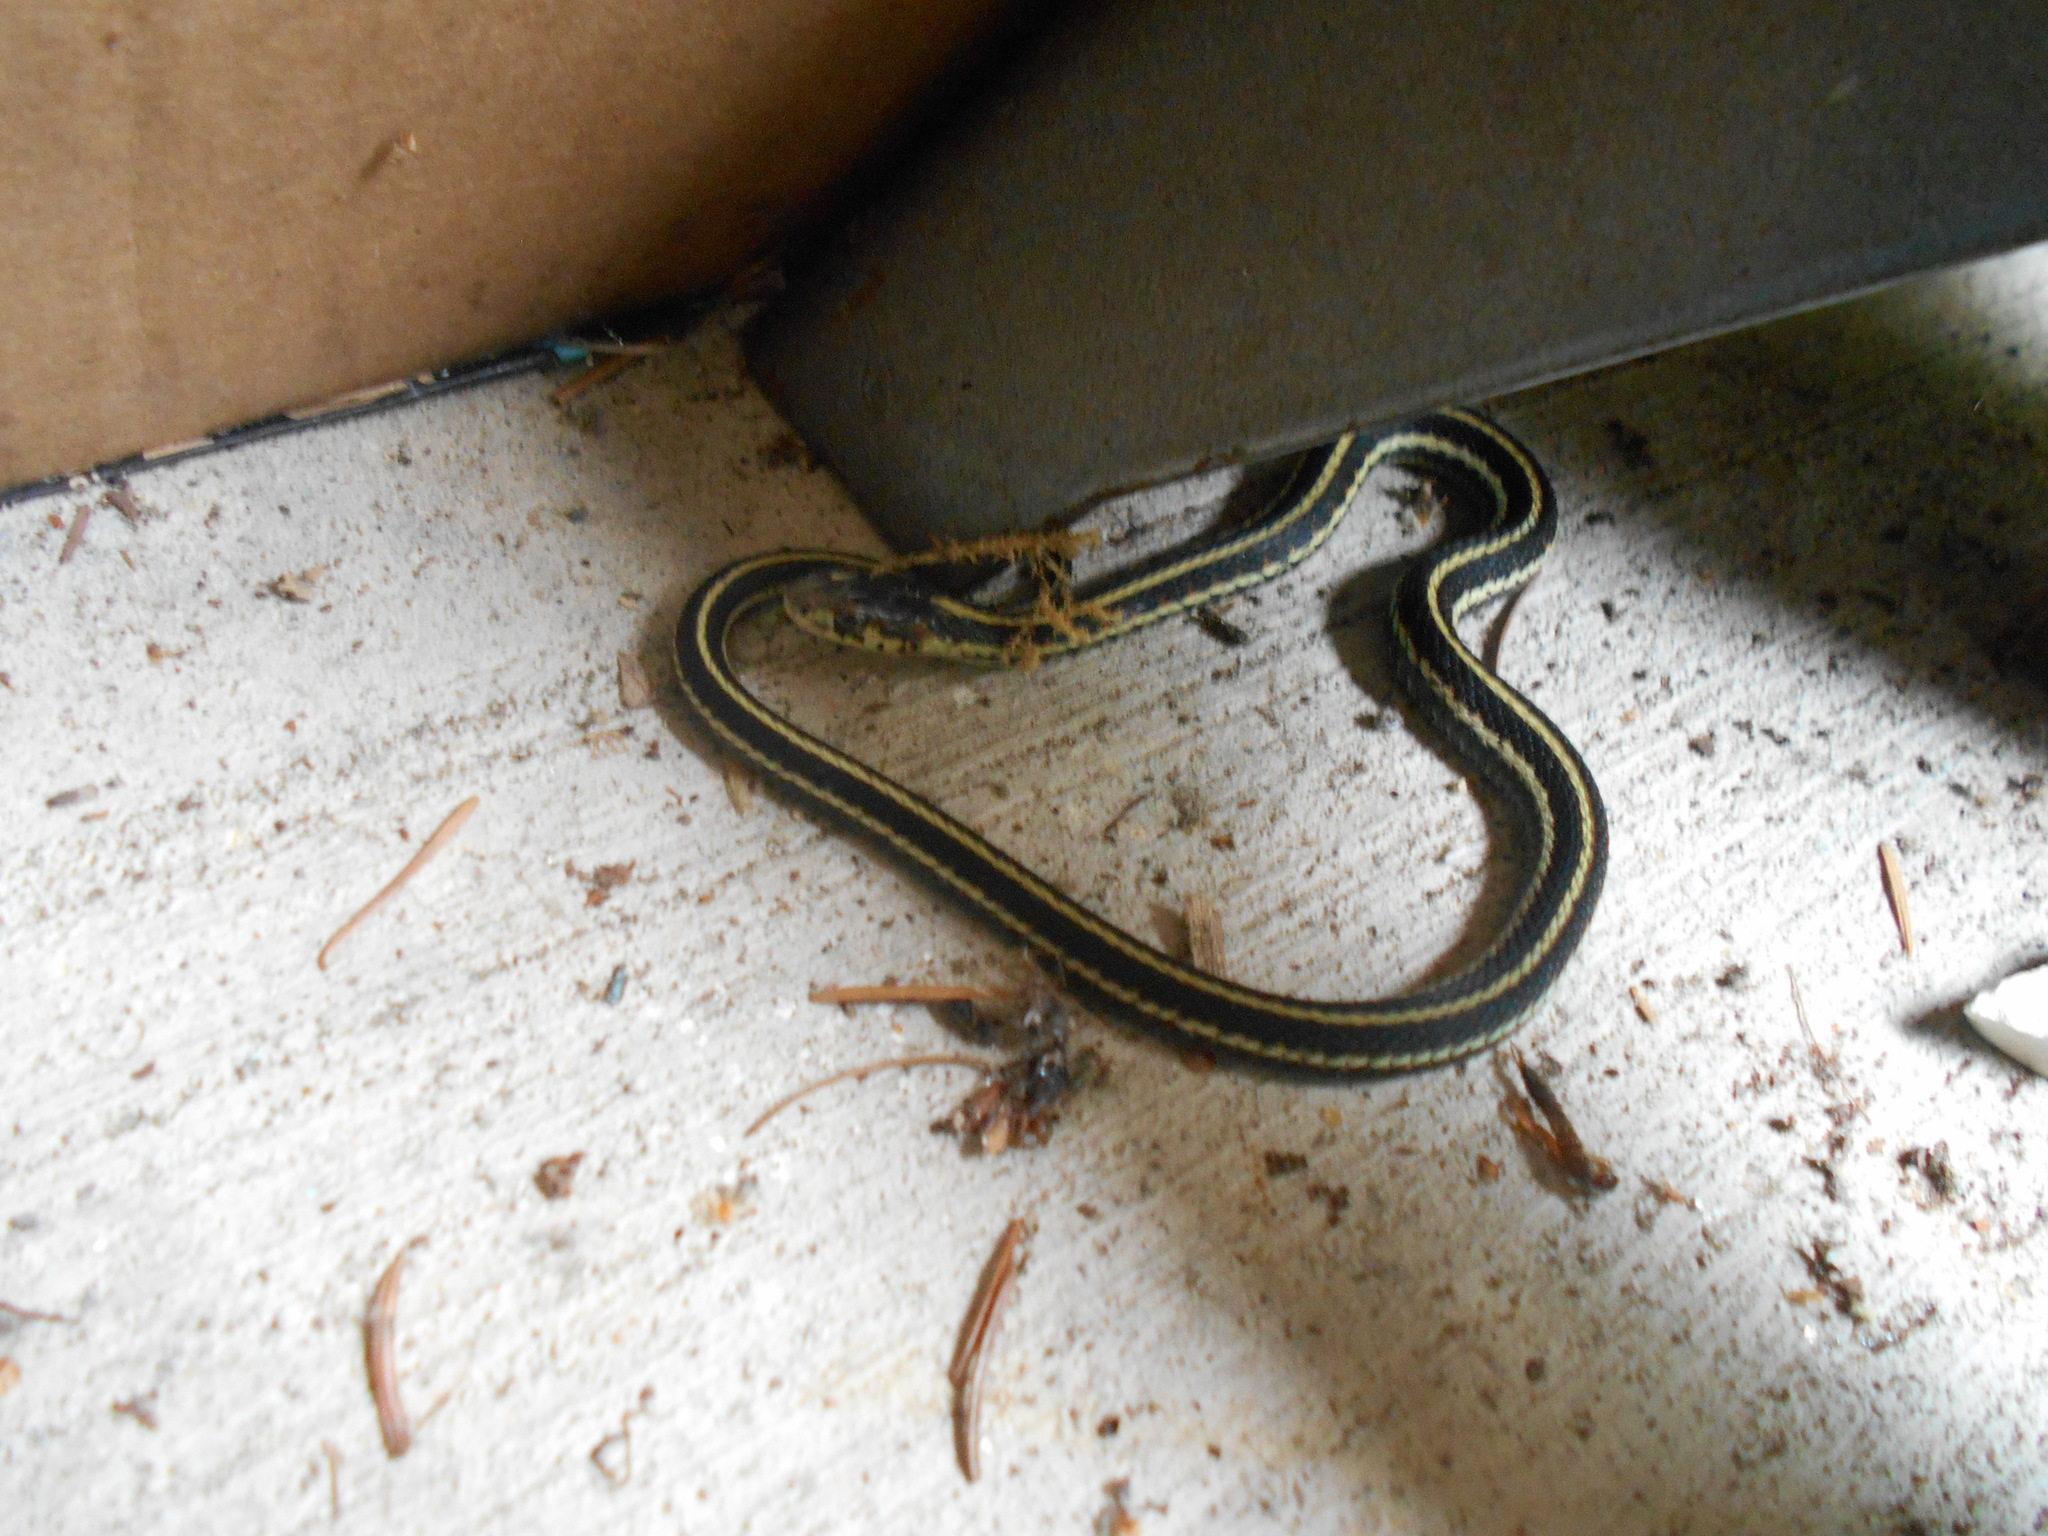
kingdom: Animalia
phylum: Chordata
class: Squamata
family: Colubridae
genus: Thamnophis
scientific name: Thamnophis sirtalis
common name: Common garter snake
